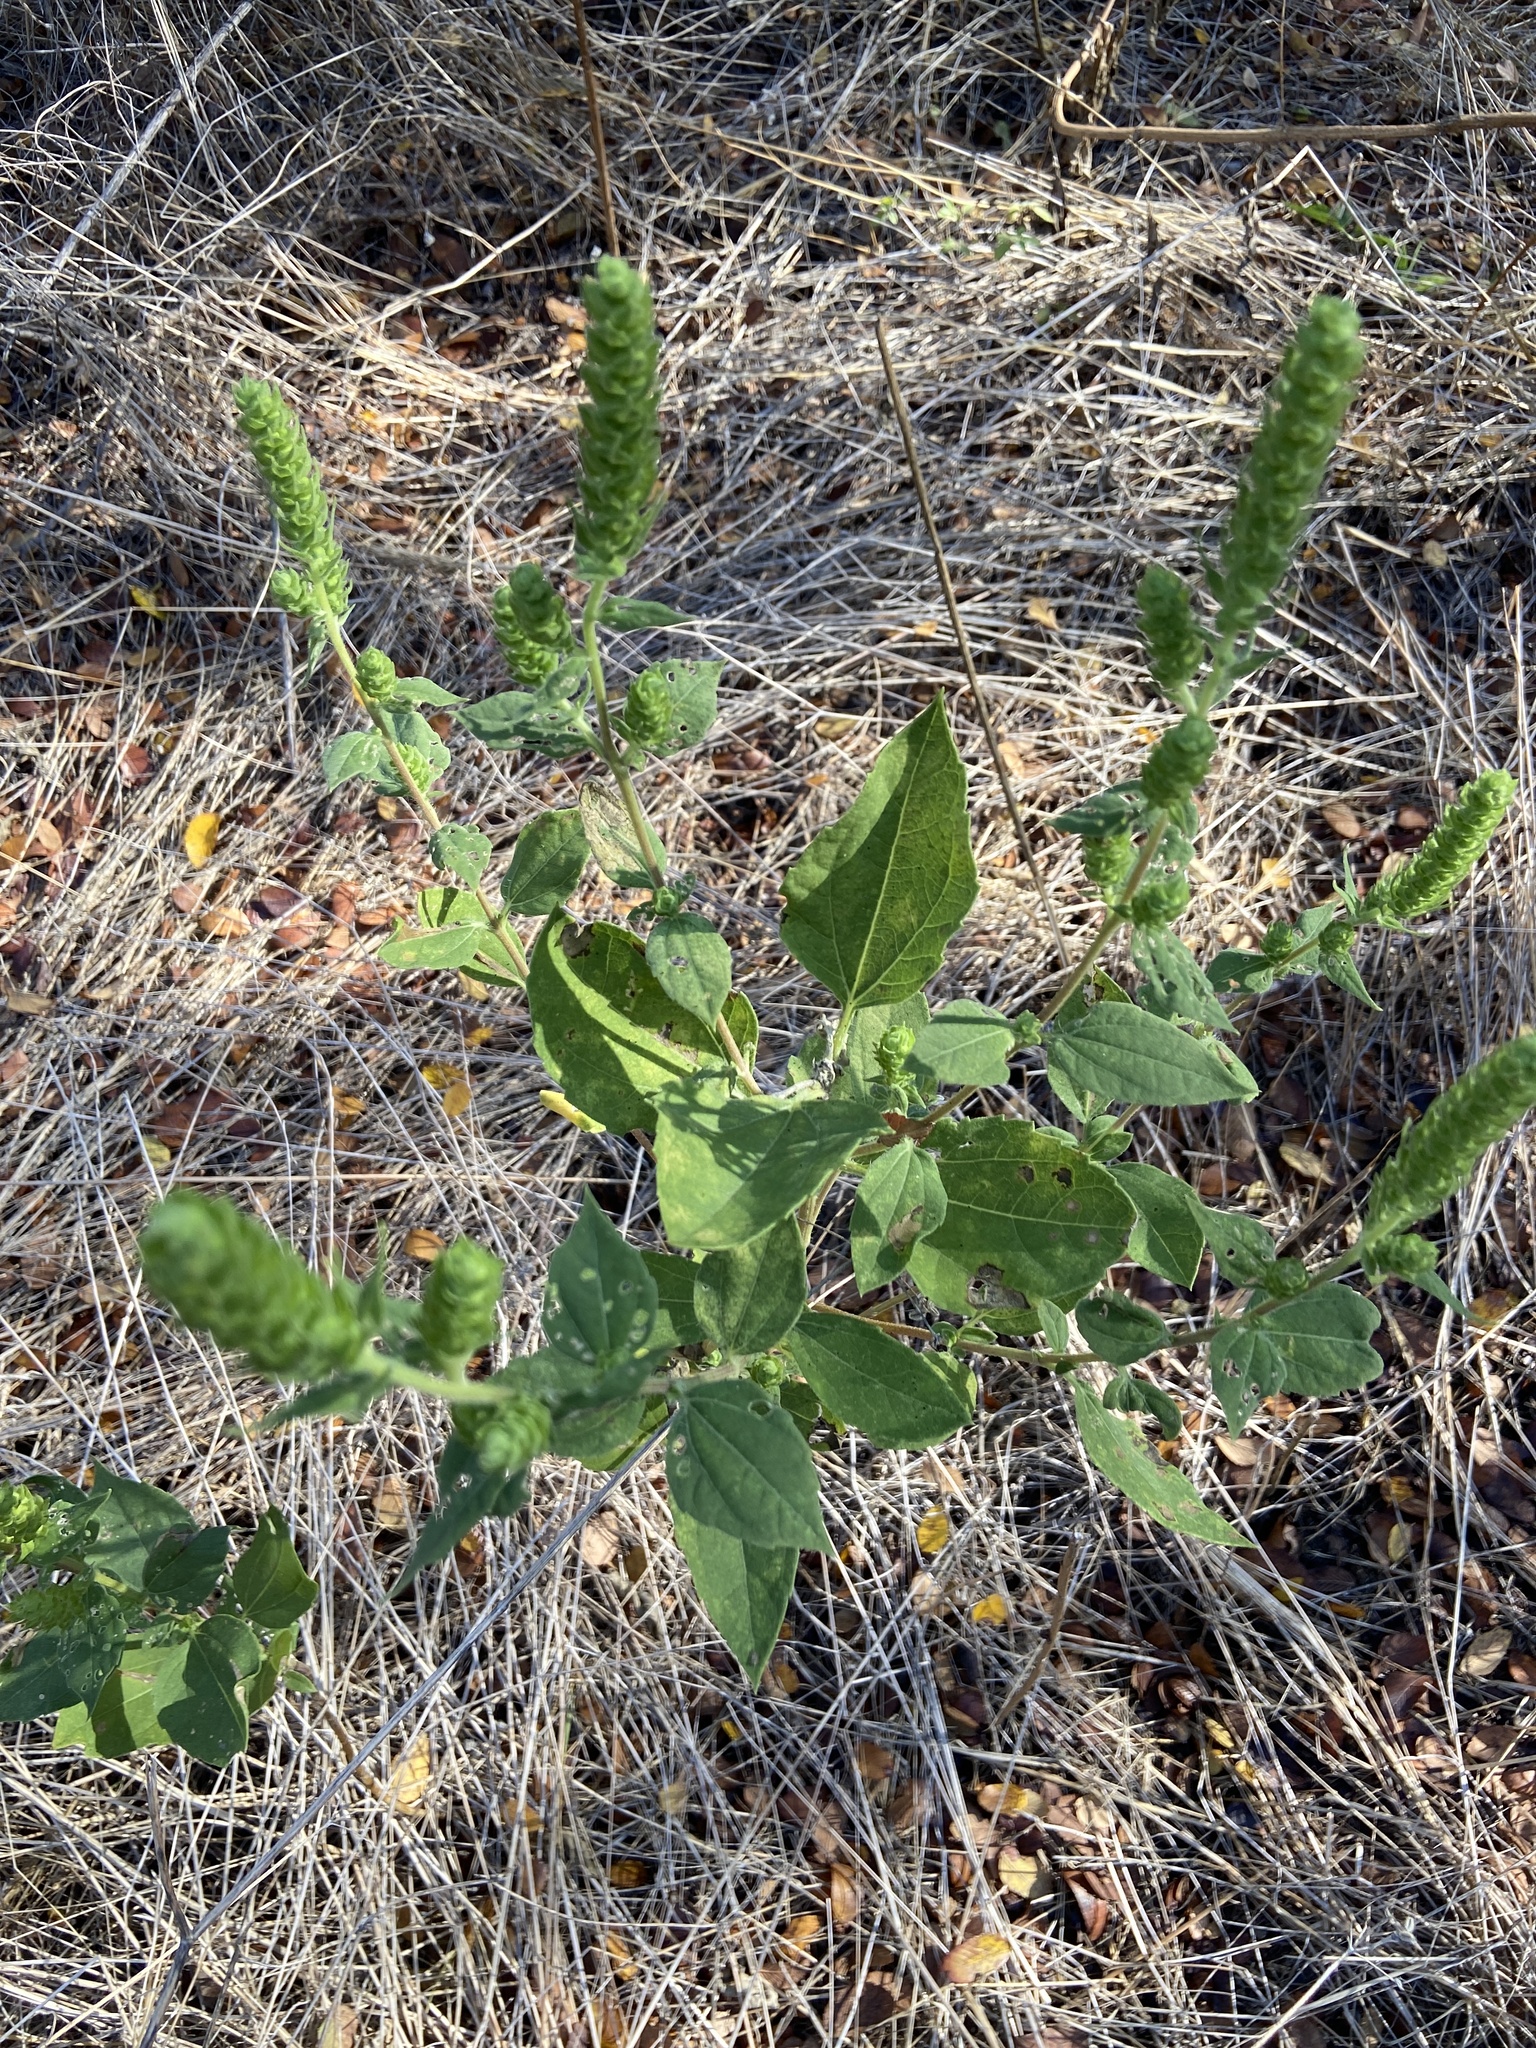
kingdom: Plantae
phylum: Tracheophyta
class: Magnoliopsida
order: Asterales
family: Asteraceae
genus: Iva
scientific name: Iva annua
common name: Marsh-elder
